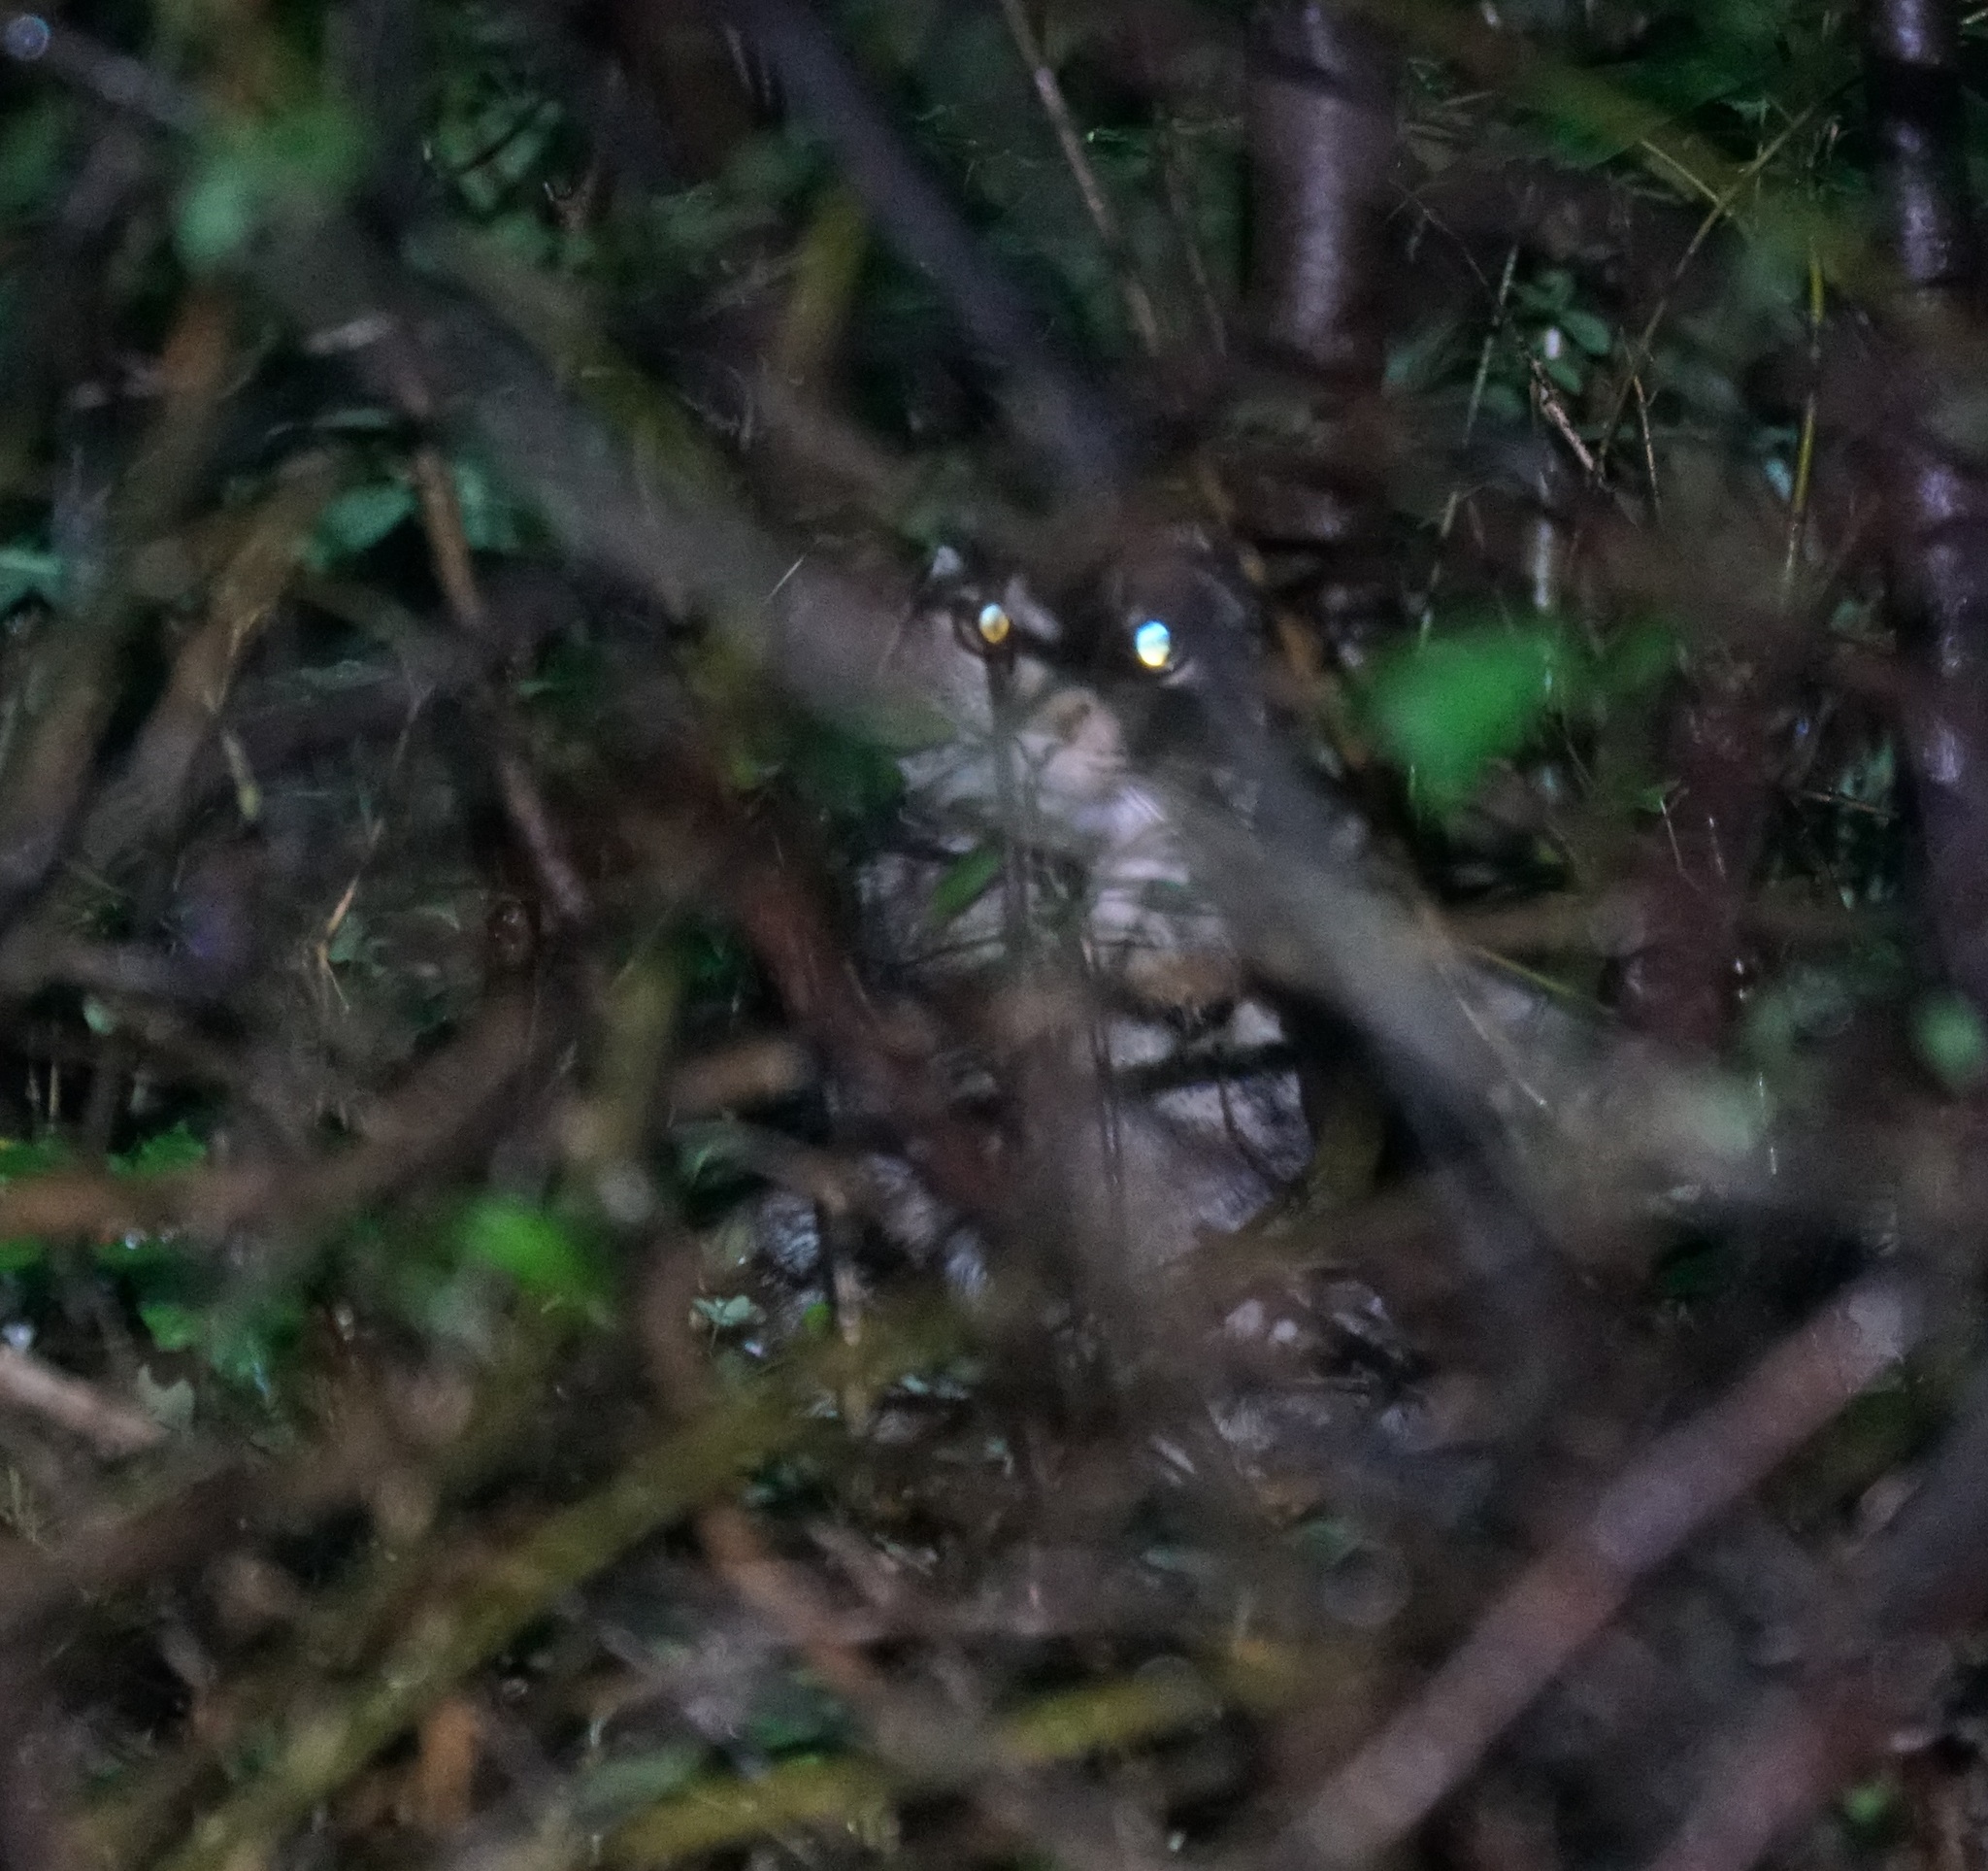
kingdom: Animalia
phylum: Chordata
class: Mammalia
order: Carnivora
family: Felidae
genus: Felis
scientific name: Felis catus
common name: Domestic cat
